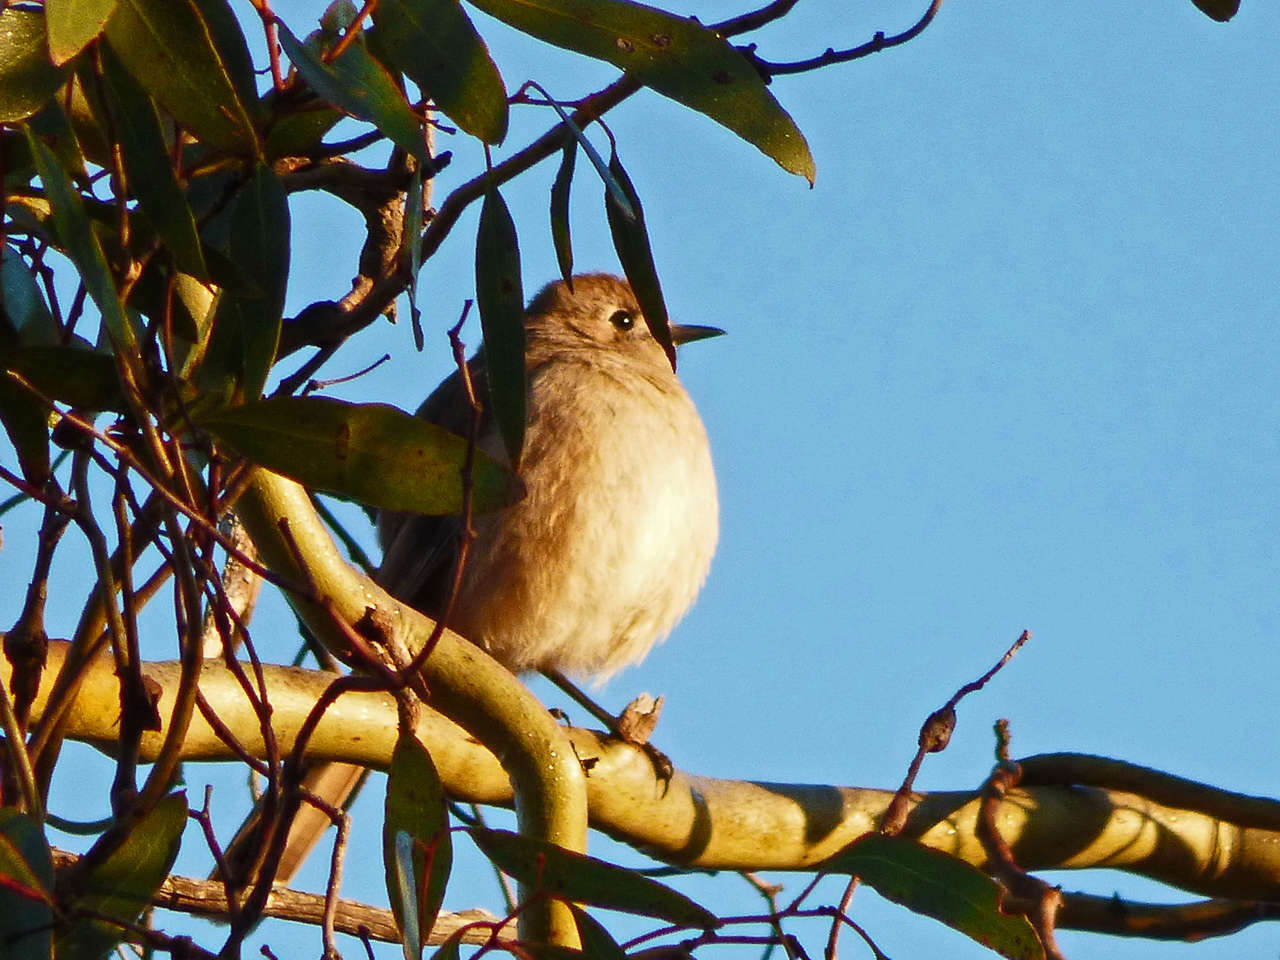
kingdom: Animalia
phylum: Chordata
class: Aves
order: Passeriformes
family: Petroicidae
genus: Drymodes
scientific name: Drymodes brunneopygia
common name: Southern scrub robin
